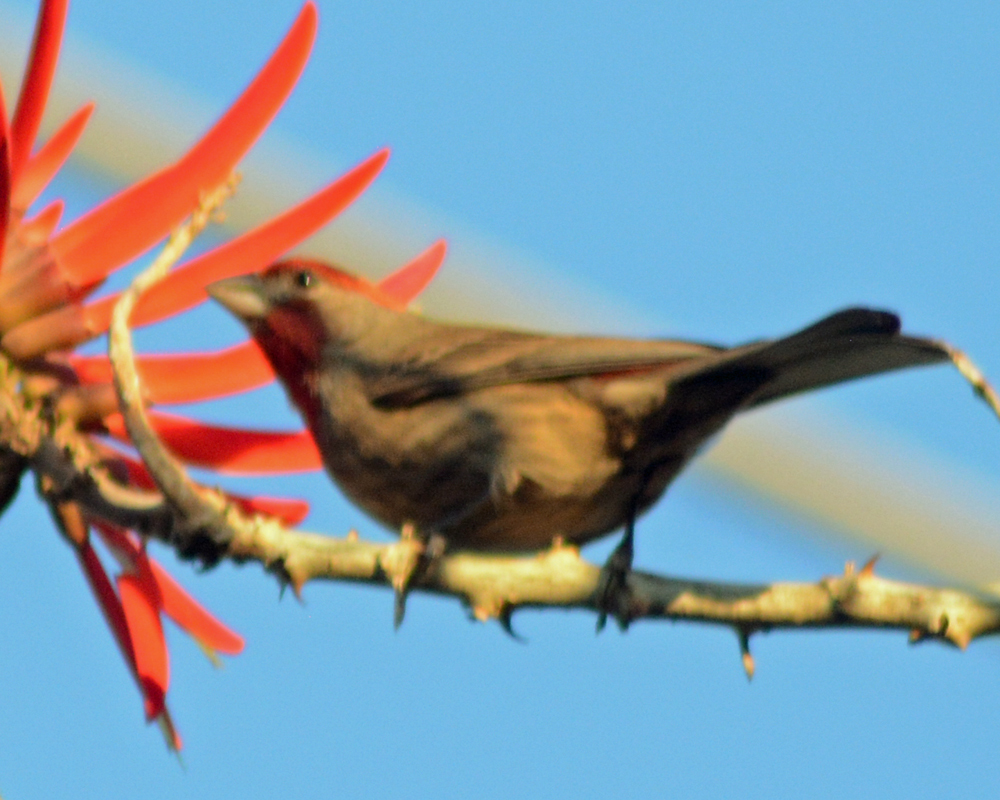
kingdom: Animalia
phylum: Chordata
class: Aves
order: Passeriformes
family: Fringillidae
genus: Haemorhous
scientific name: Haemorhous mexicanus
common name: House finch
